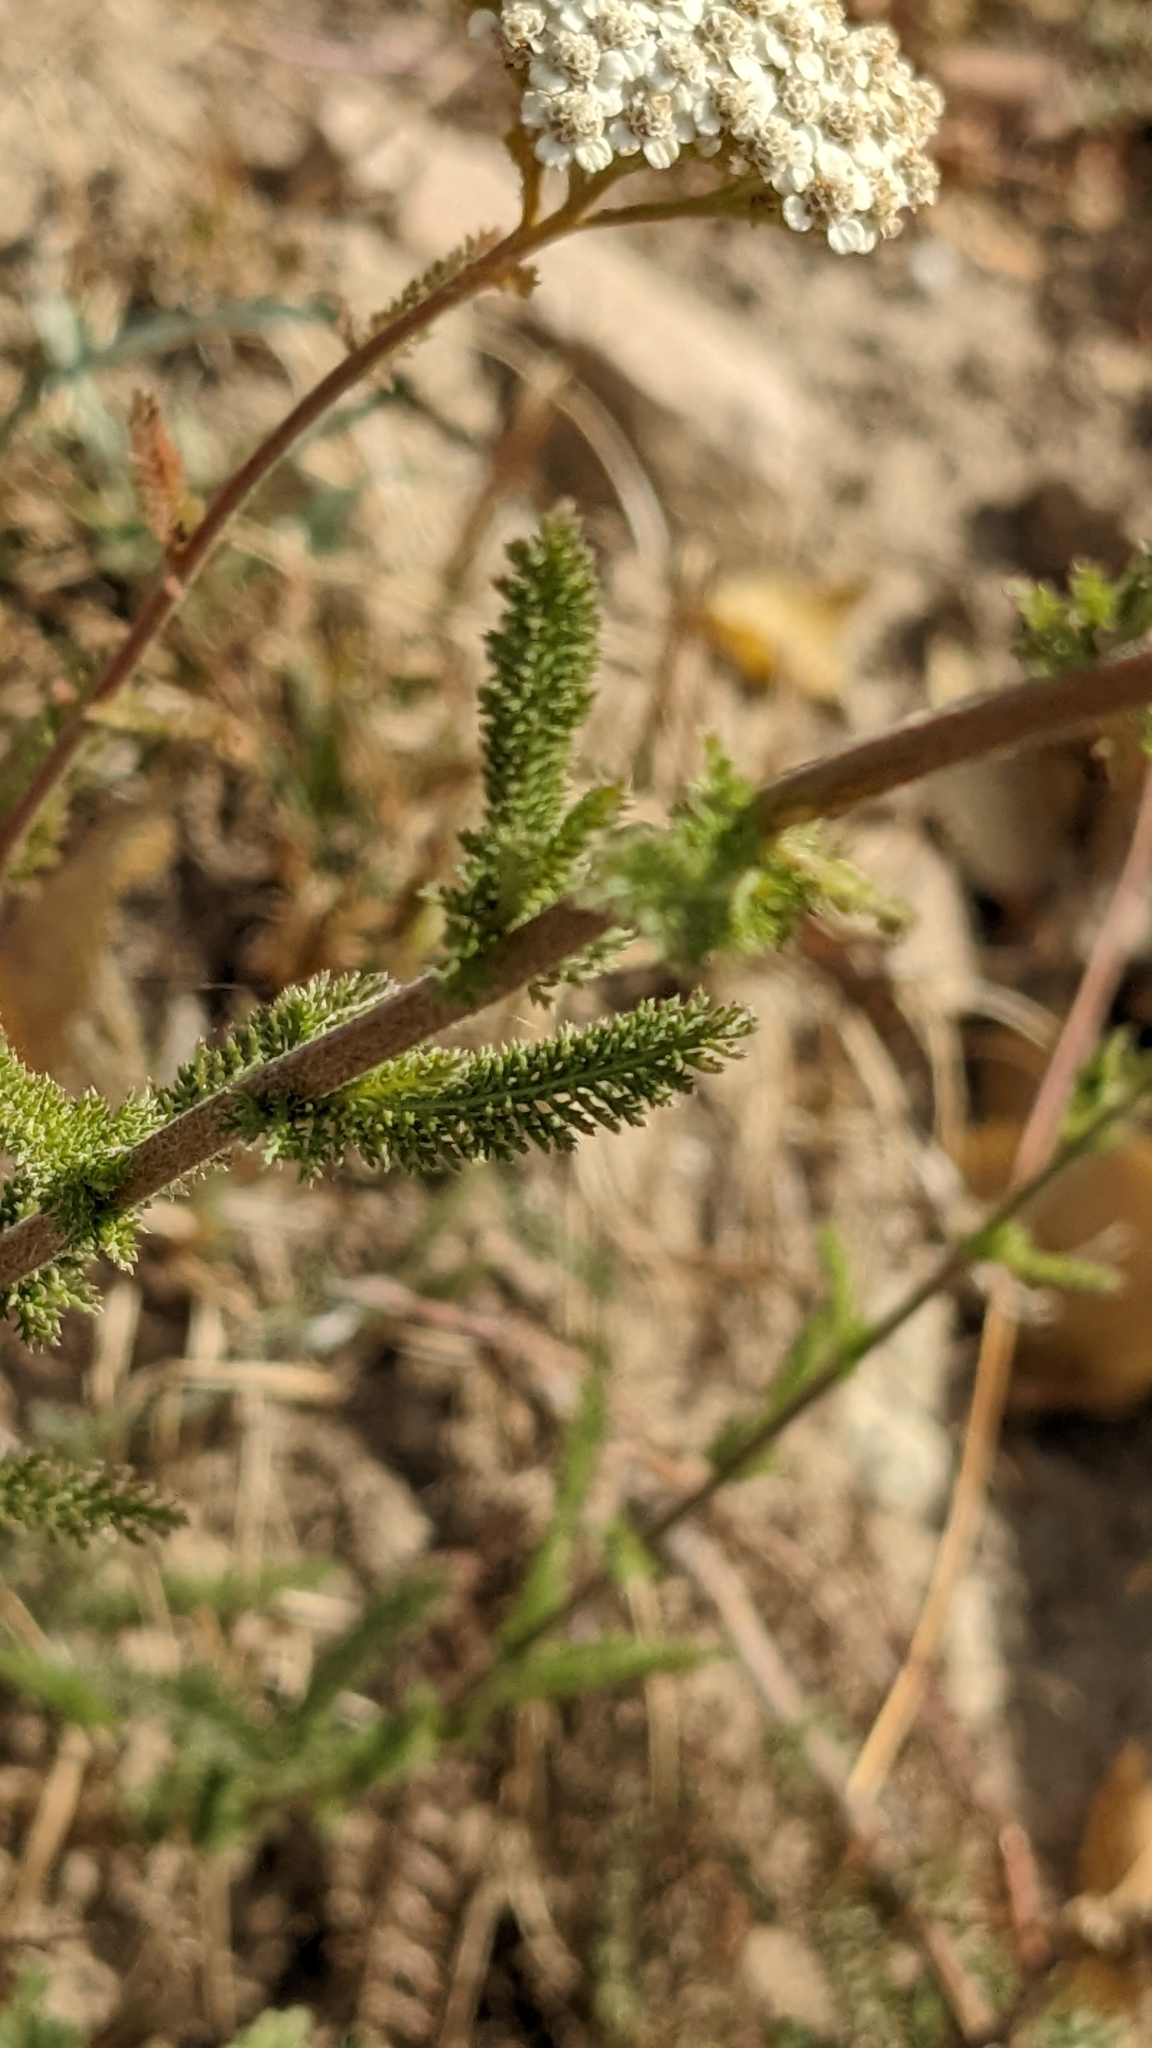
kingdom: Plantae
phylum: Tracheophyta
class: Magnoliopsida
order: Asterales
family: Asteraceae
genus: Achillea
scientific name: Achillea millefolium
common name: Yarrow
